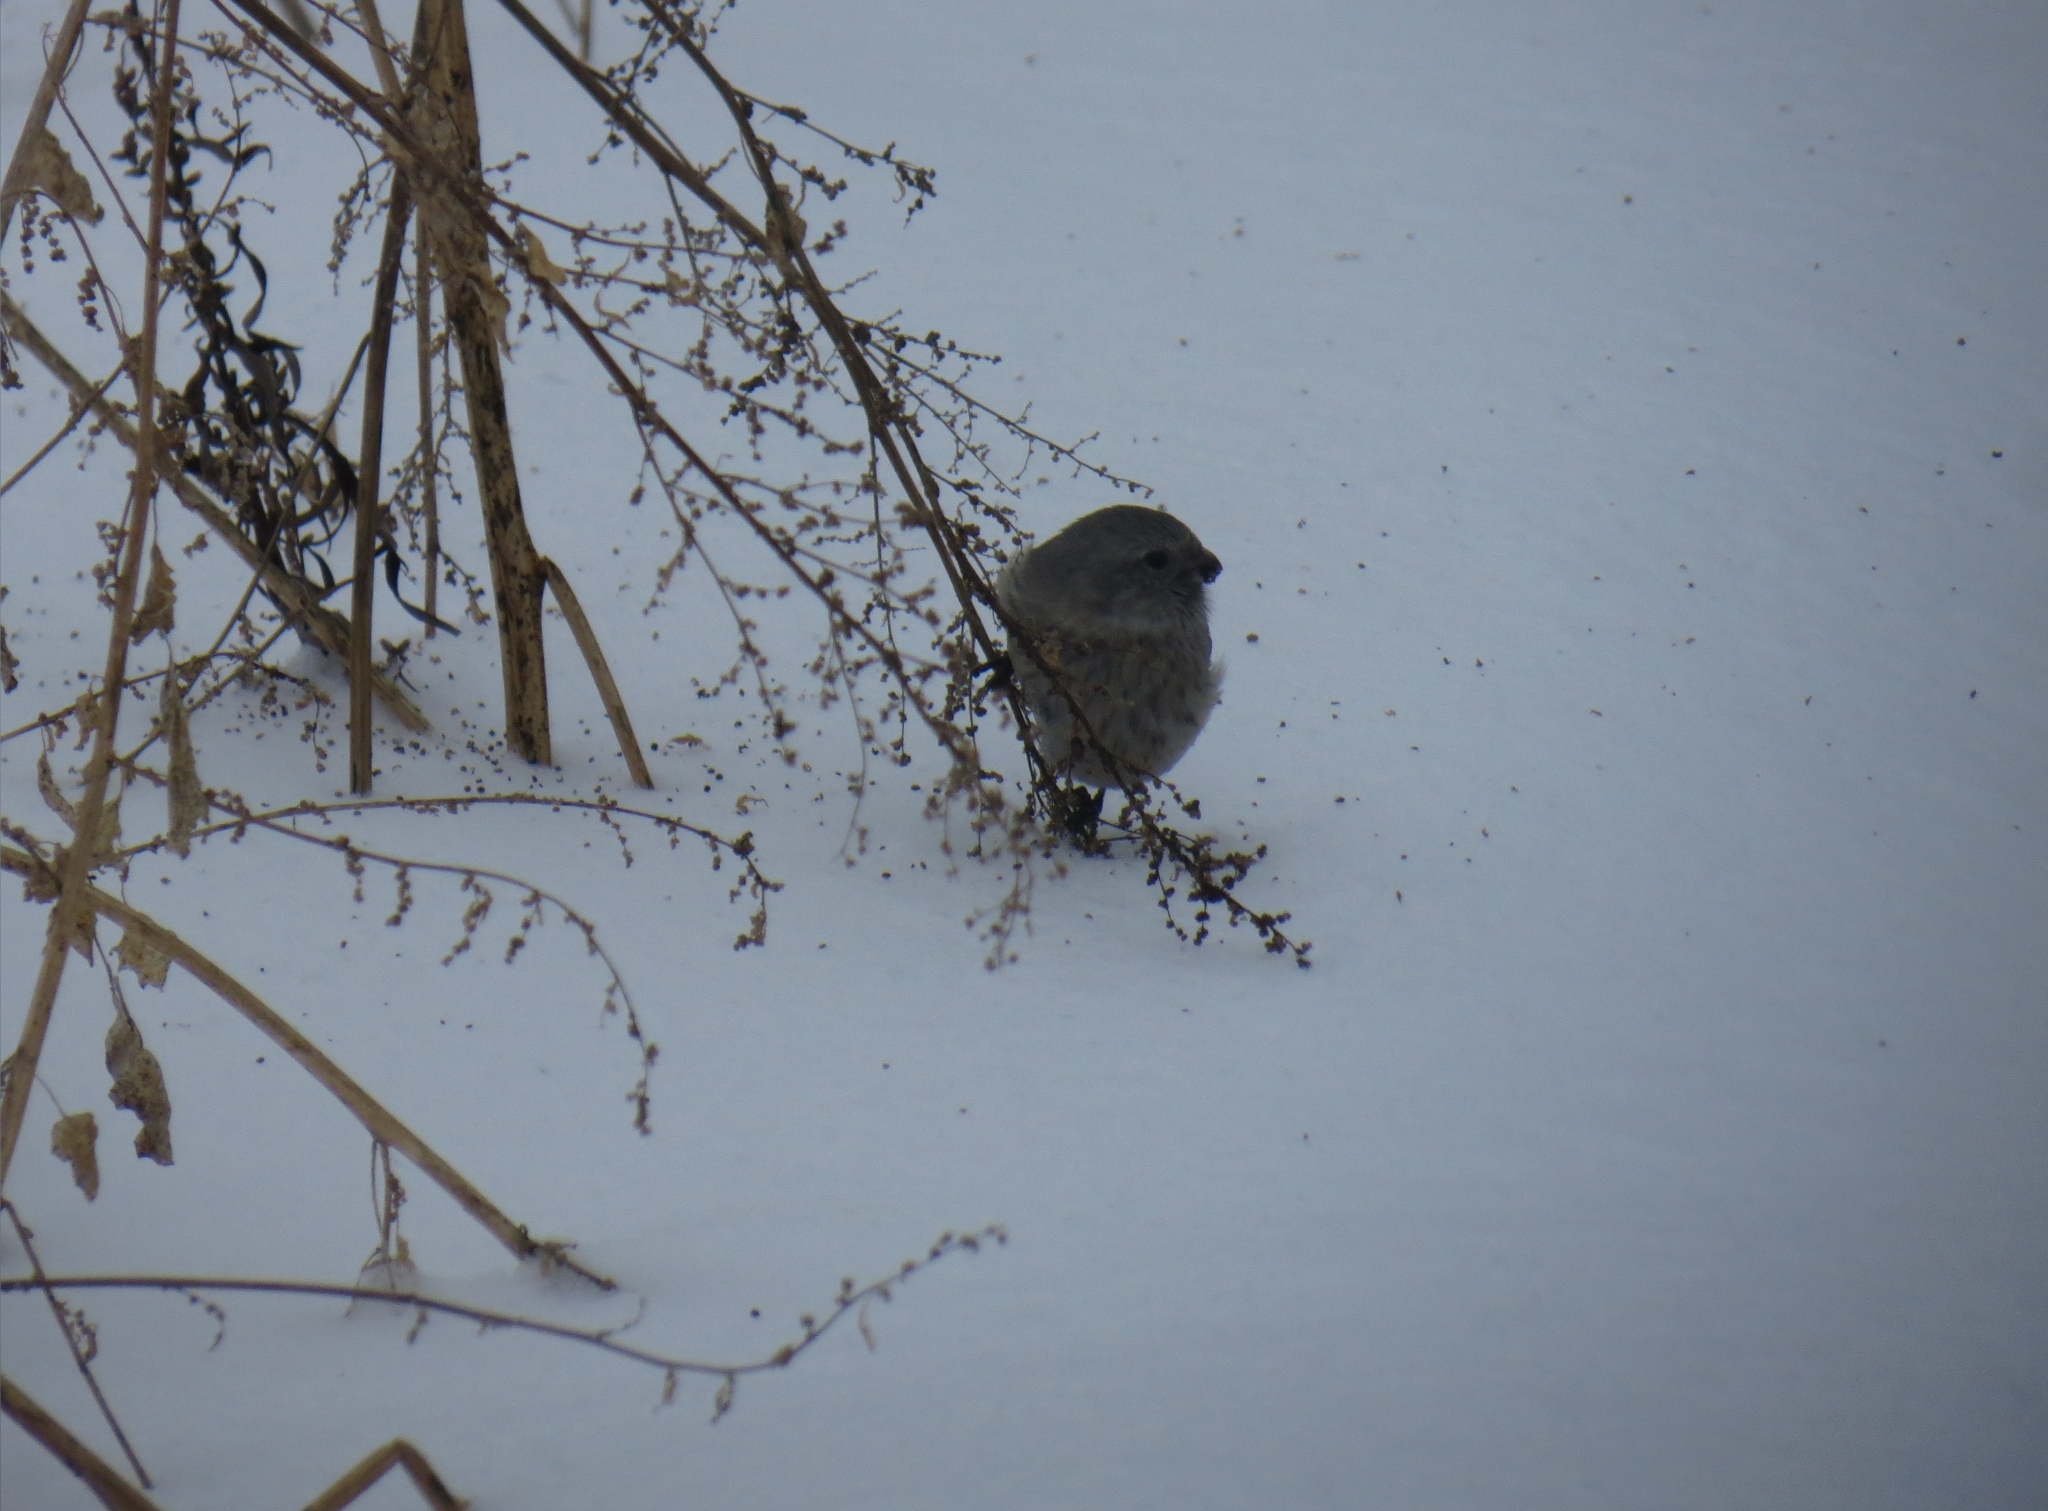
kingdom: Animalia
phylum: Chordata
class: Aves
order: Passeriformes
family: Fringillidae
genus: Carpodacus
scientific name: Carpodacus sibiricus
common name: Long-tailed rosefinch
